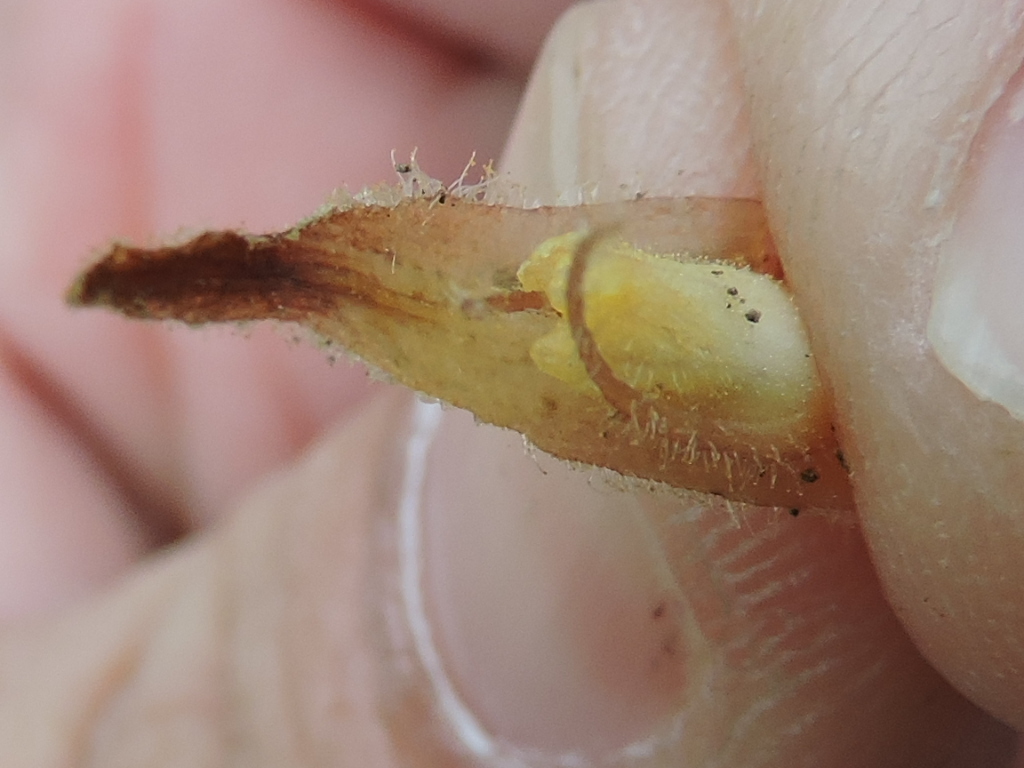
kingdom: Plantae
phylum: Tracheophyta
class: Magnoliopsida
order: Lamiales
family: Orobanchaceae
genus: Orobanche
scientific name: Orobanche
